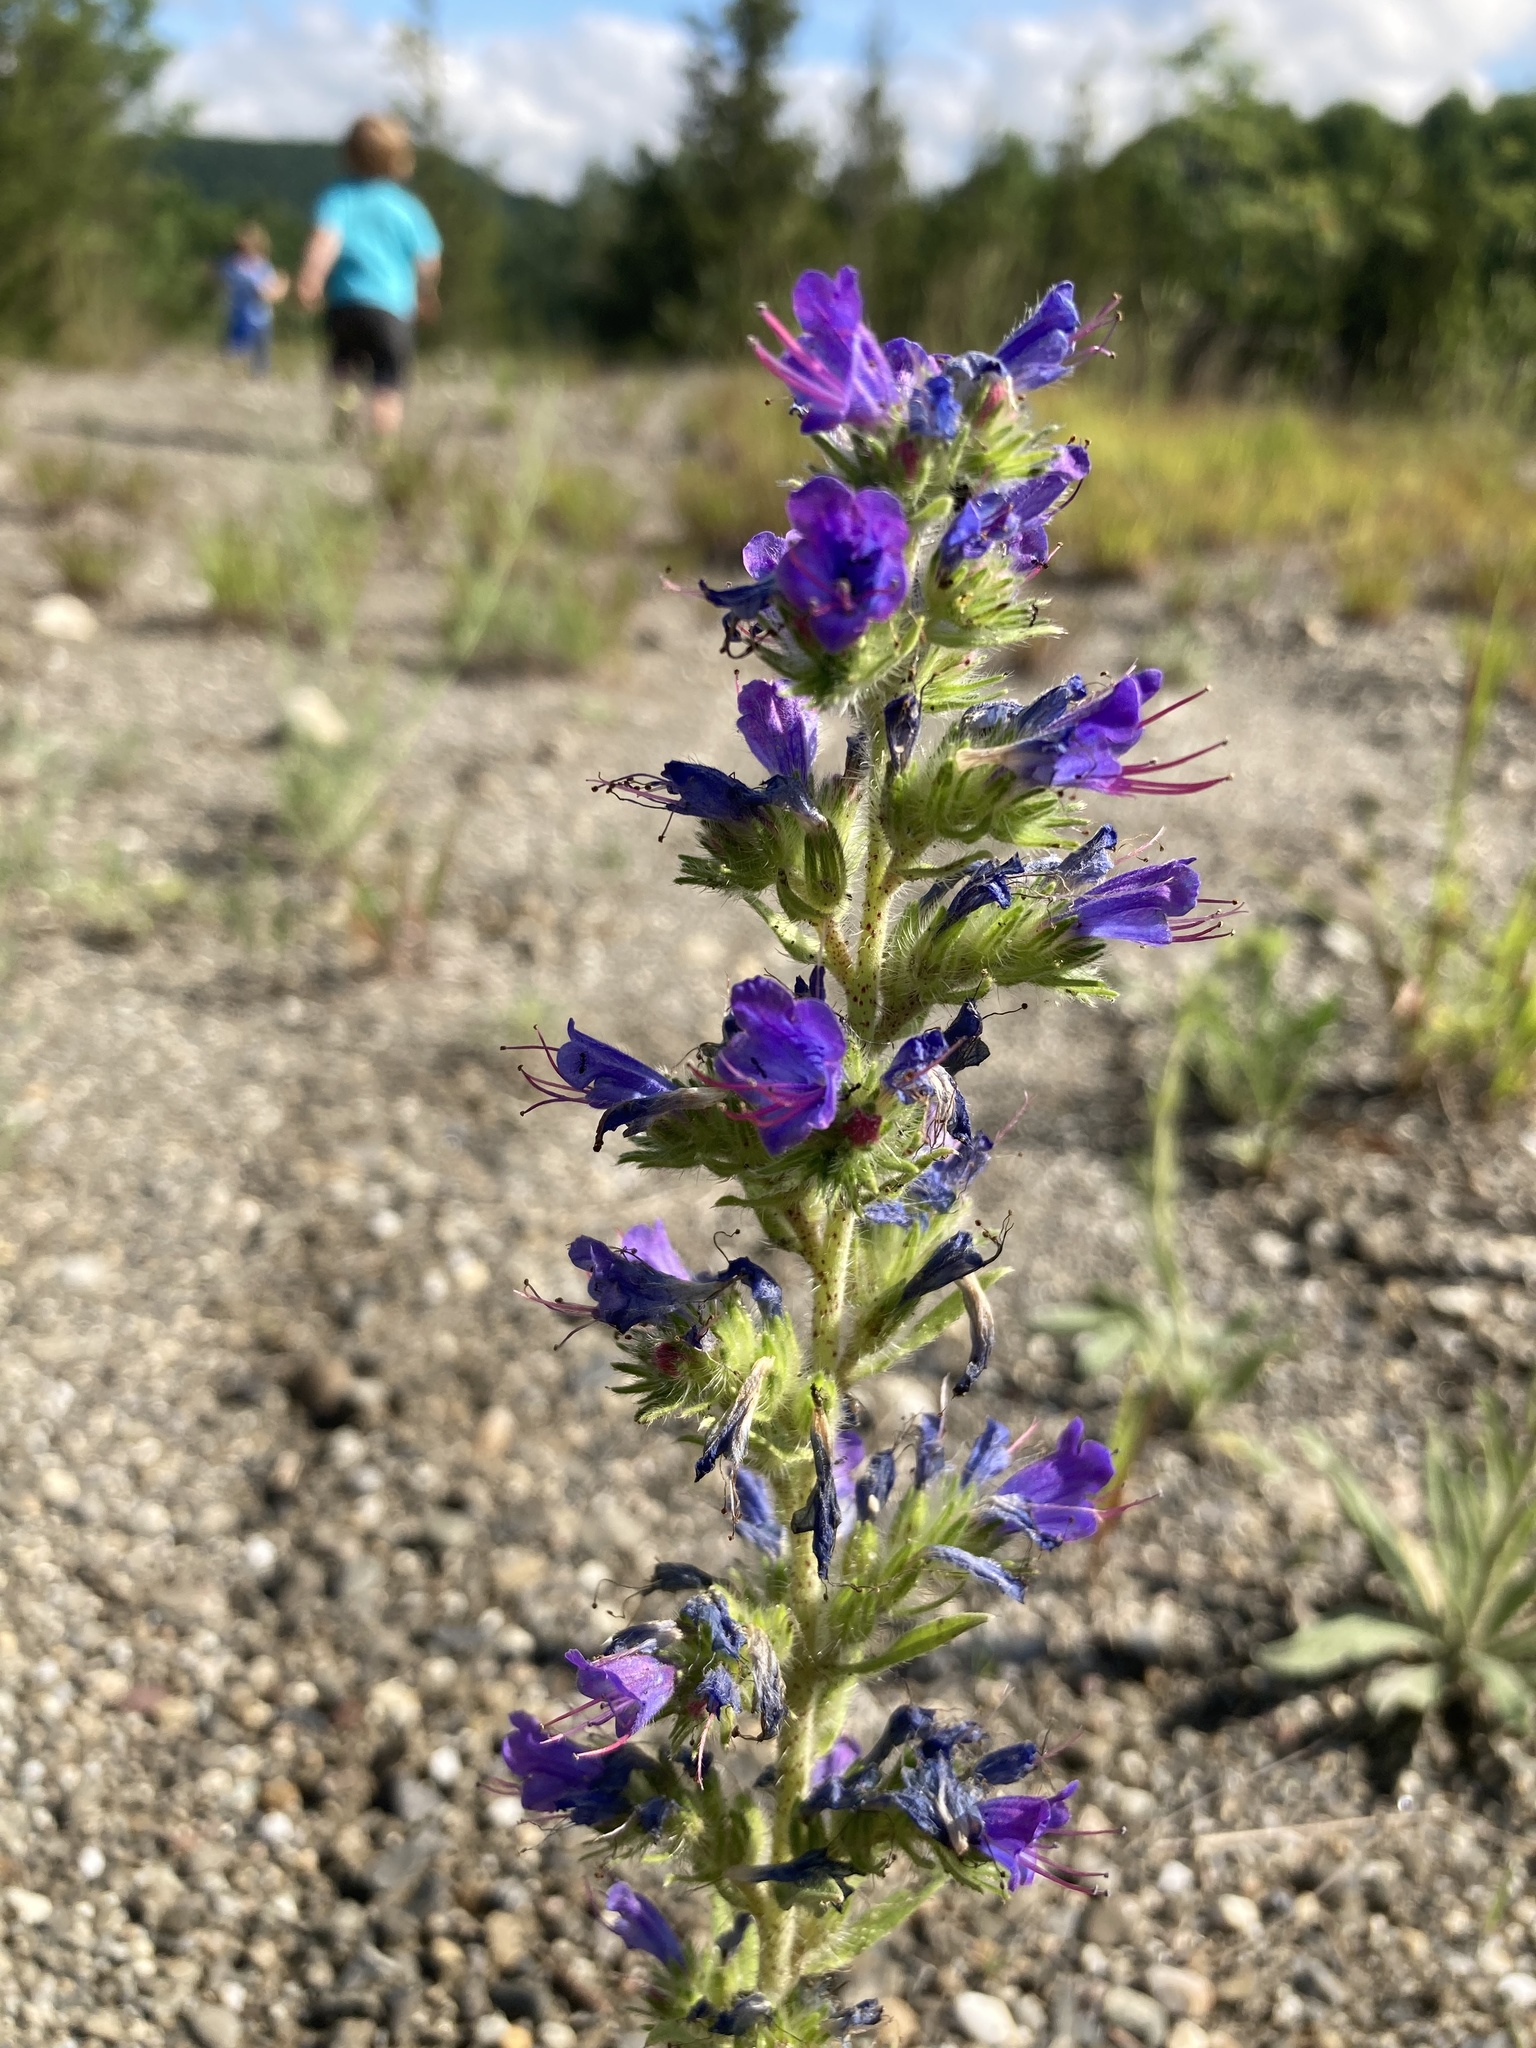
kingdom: Plantae
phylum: Tracheophyta
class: Magnoliopsida
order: Boraginales
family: Boraginaceae
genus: Echium
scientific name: Echium vulgare
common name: Common viper's bugloss
